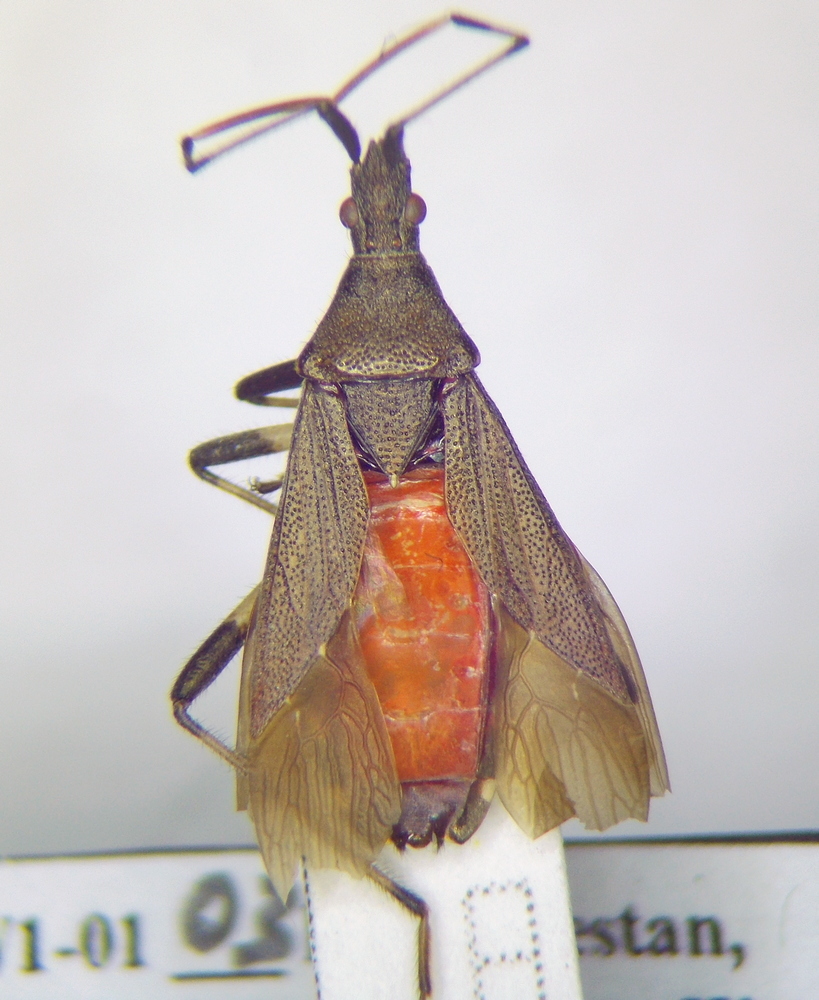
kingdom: Animalia
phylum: Arthropoda
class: Insecta
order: Hemiptera
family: Stenocephalidae
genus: Dicranocephalus
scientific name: Dicranocephalus albipes
